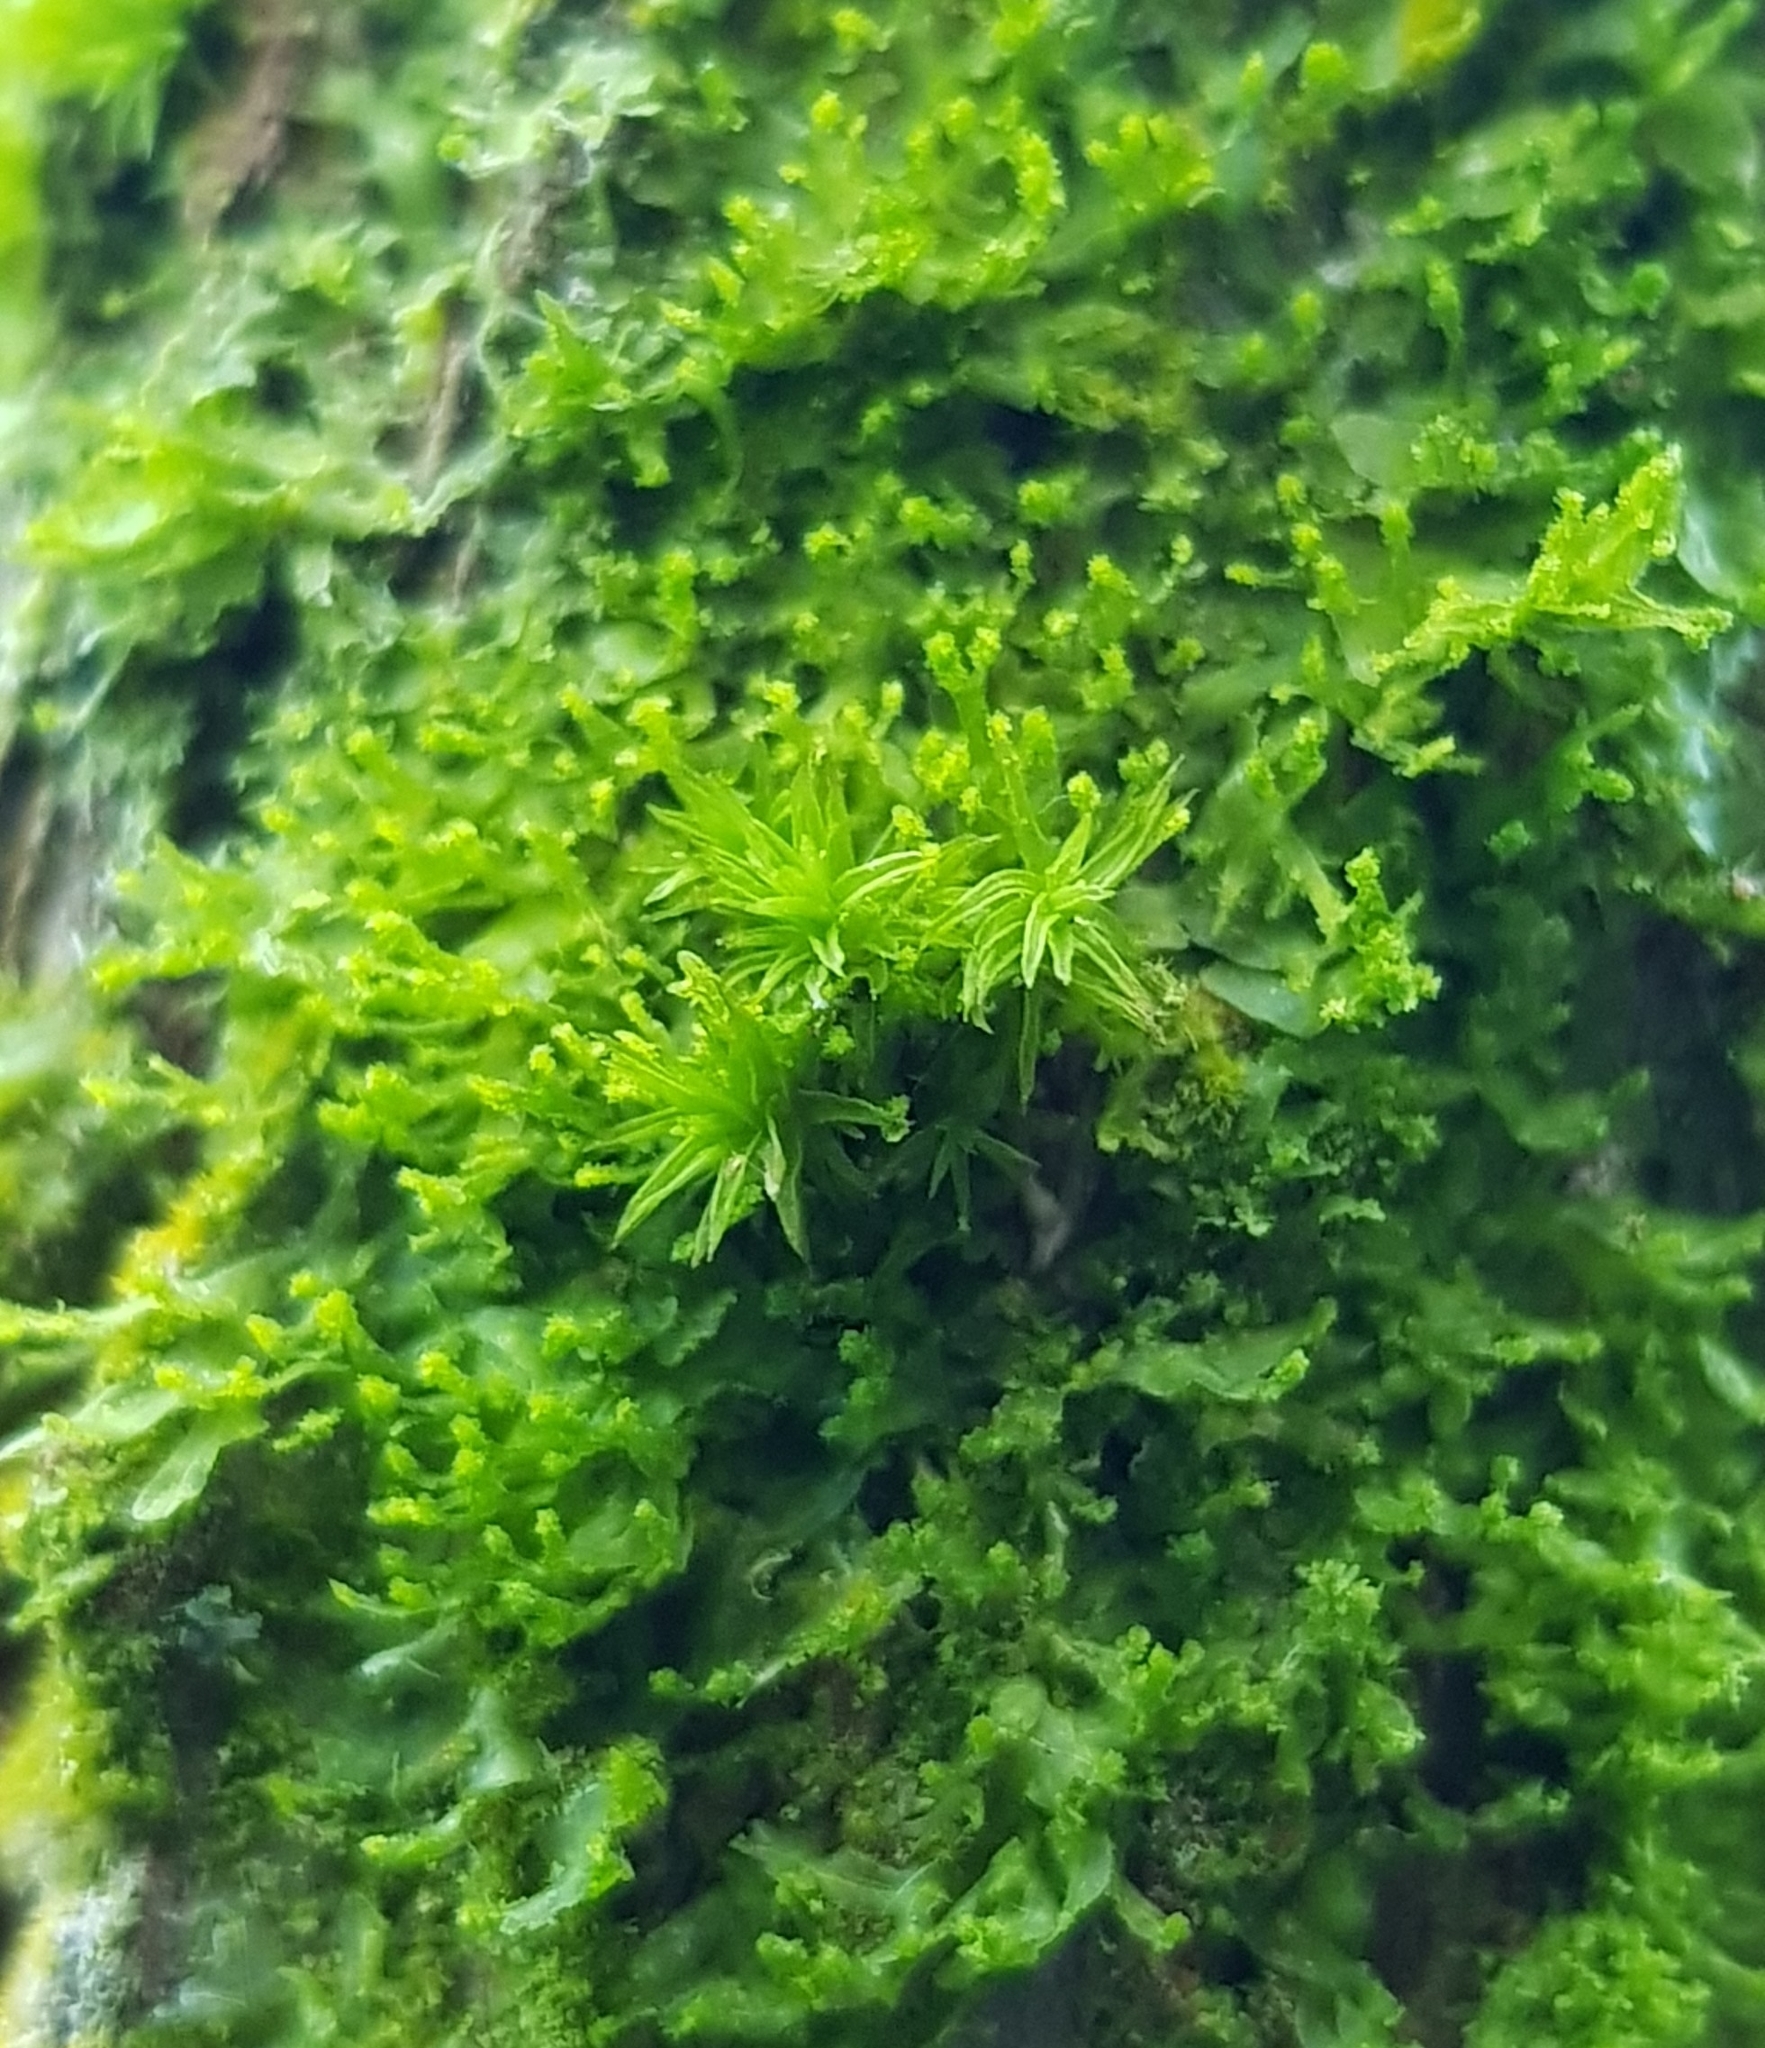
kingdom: Plantae
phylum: Marchantiophyta
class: Jungermanniopsida
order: Metzgeriales
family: Metzgeriaceae
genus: Metzgeria
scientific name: Metzgeria violacea
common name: Blueish veilwort
